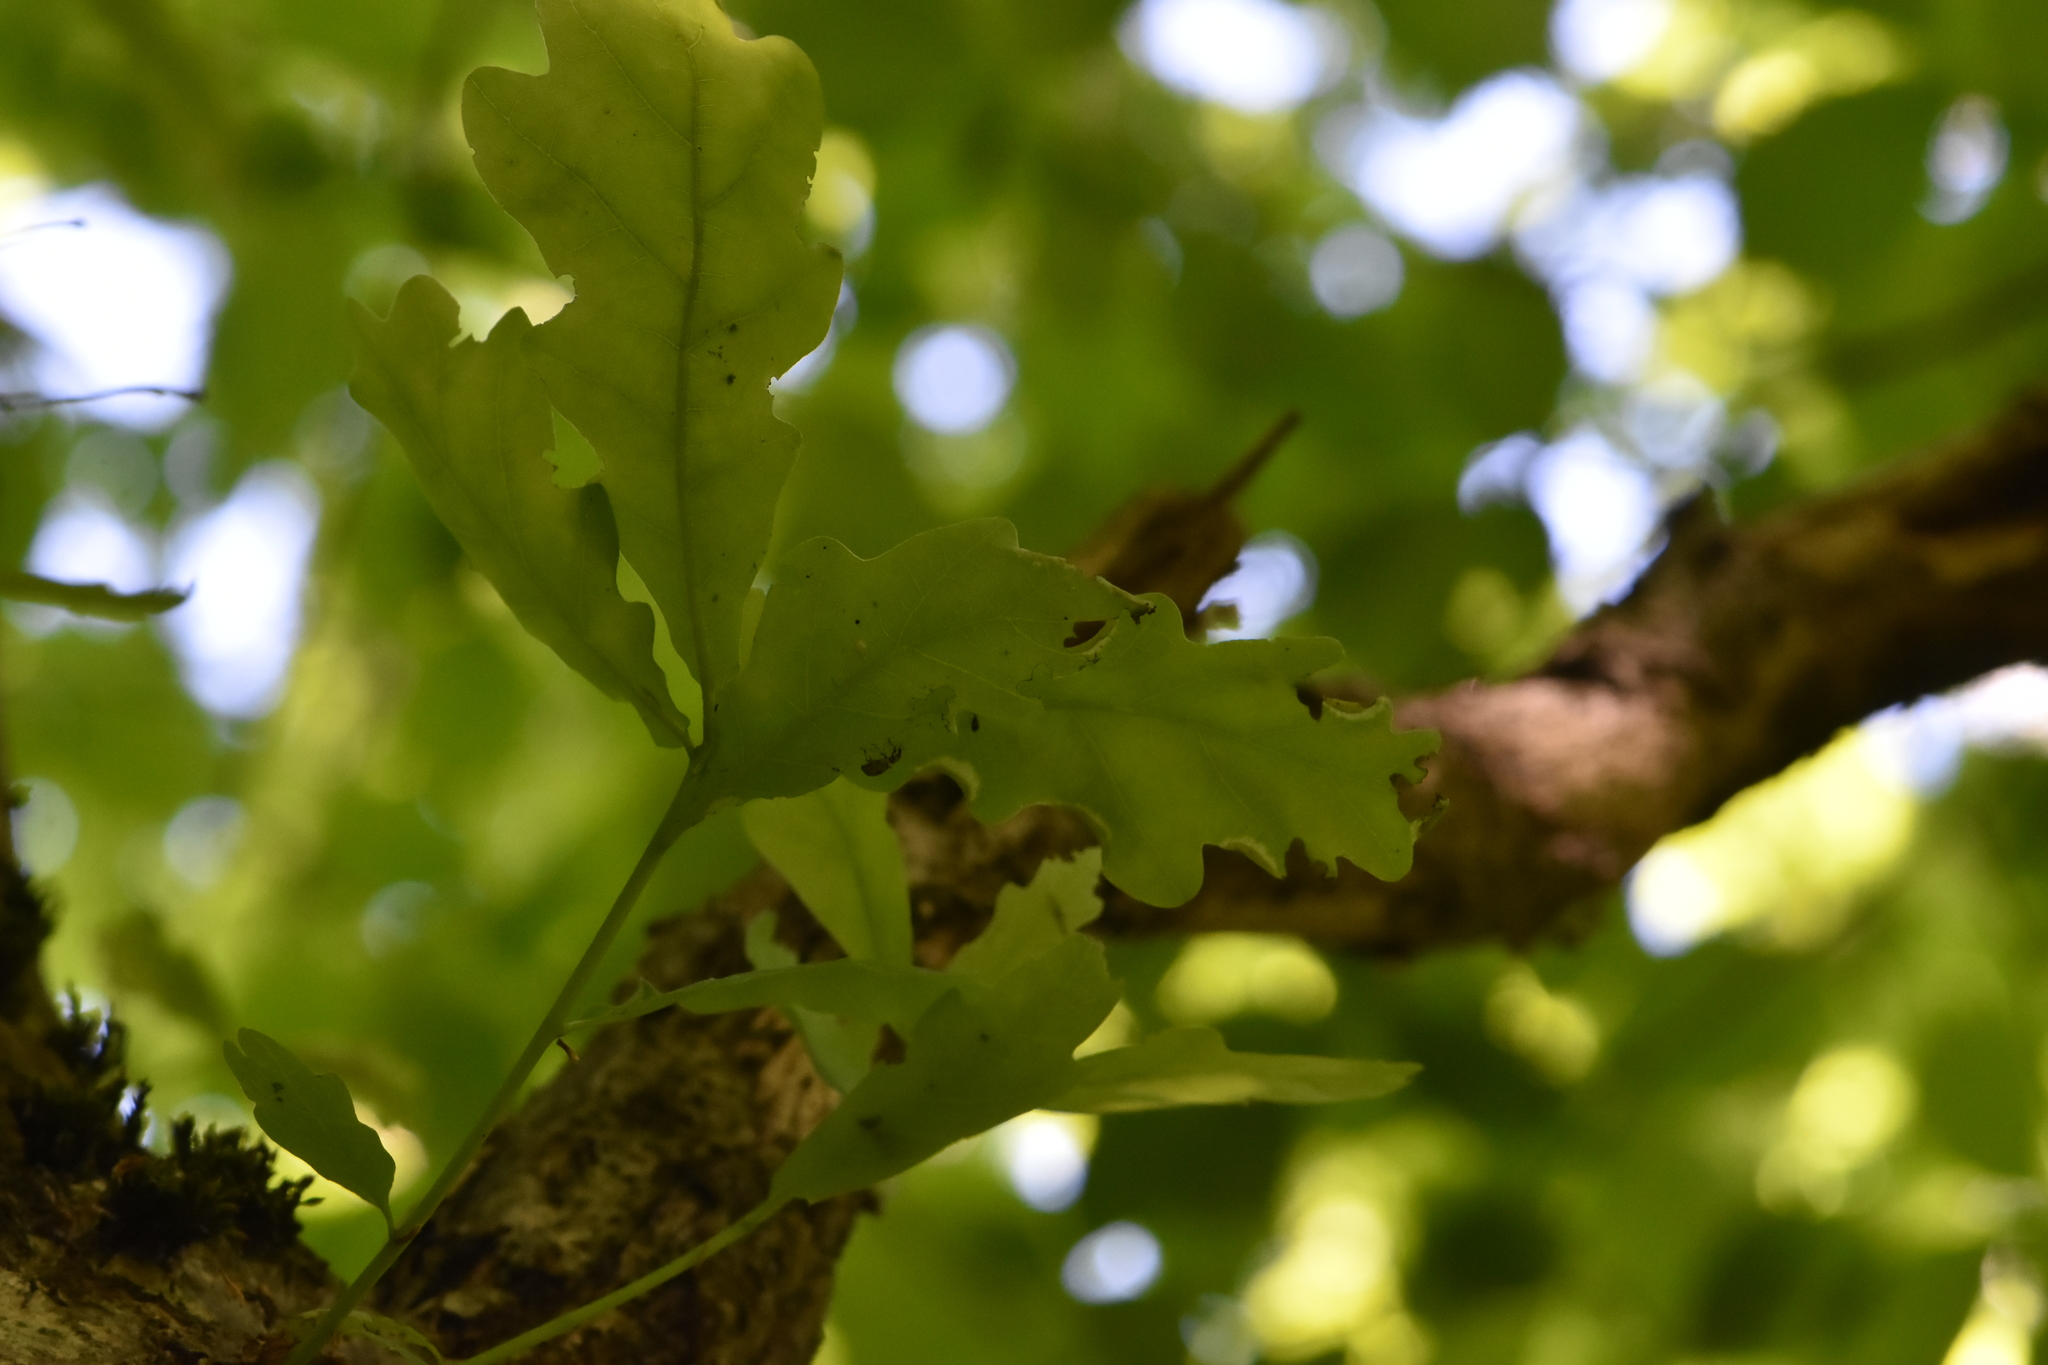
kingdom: Plantae
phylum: Tracheophyta
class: Magnoliopsida
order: Fagales
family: Fagaceae
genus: Quercus
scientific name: Quercus robur
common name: Pedunculate oak
